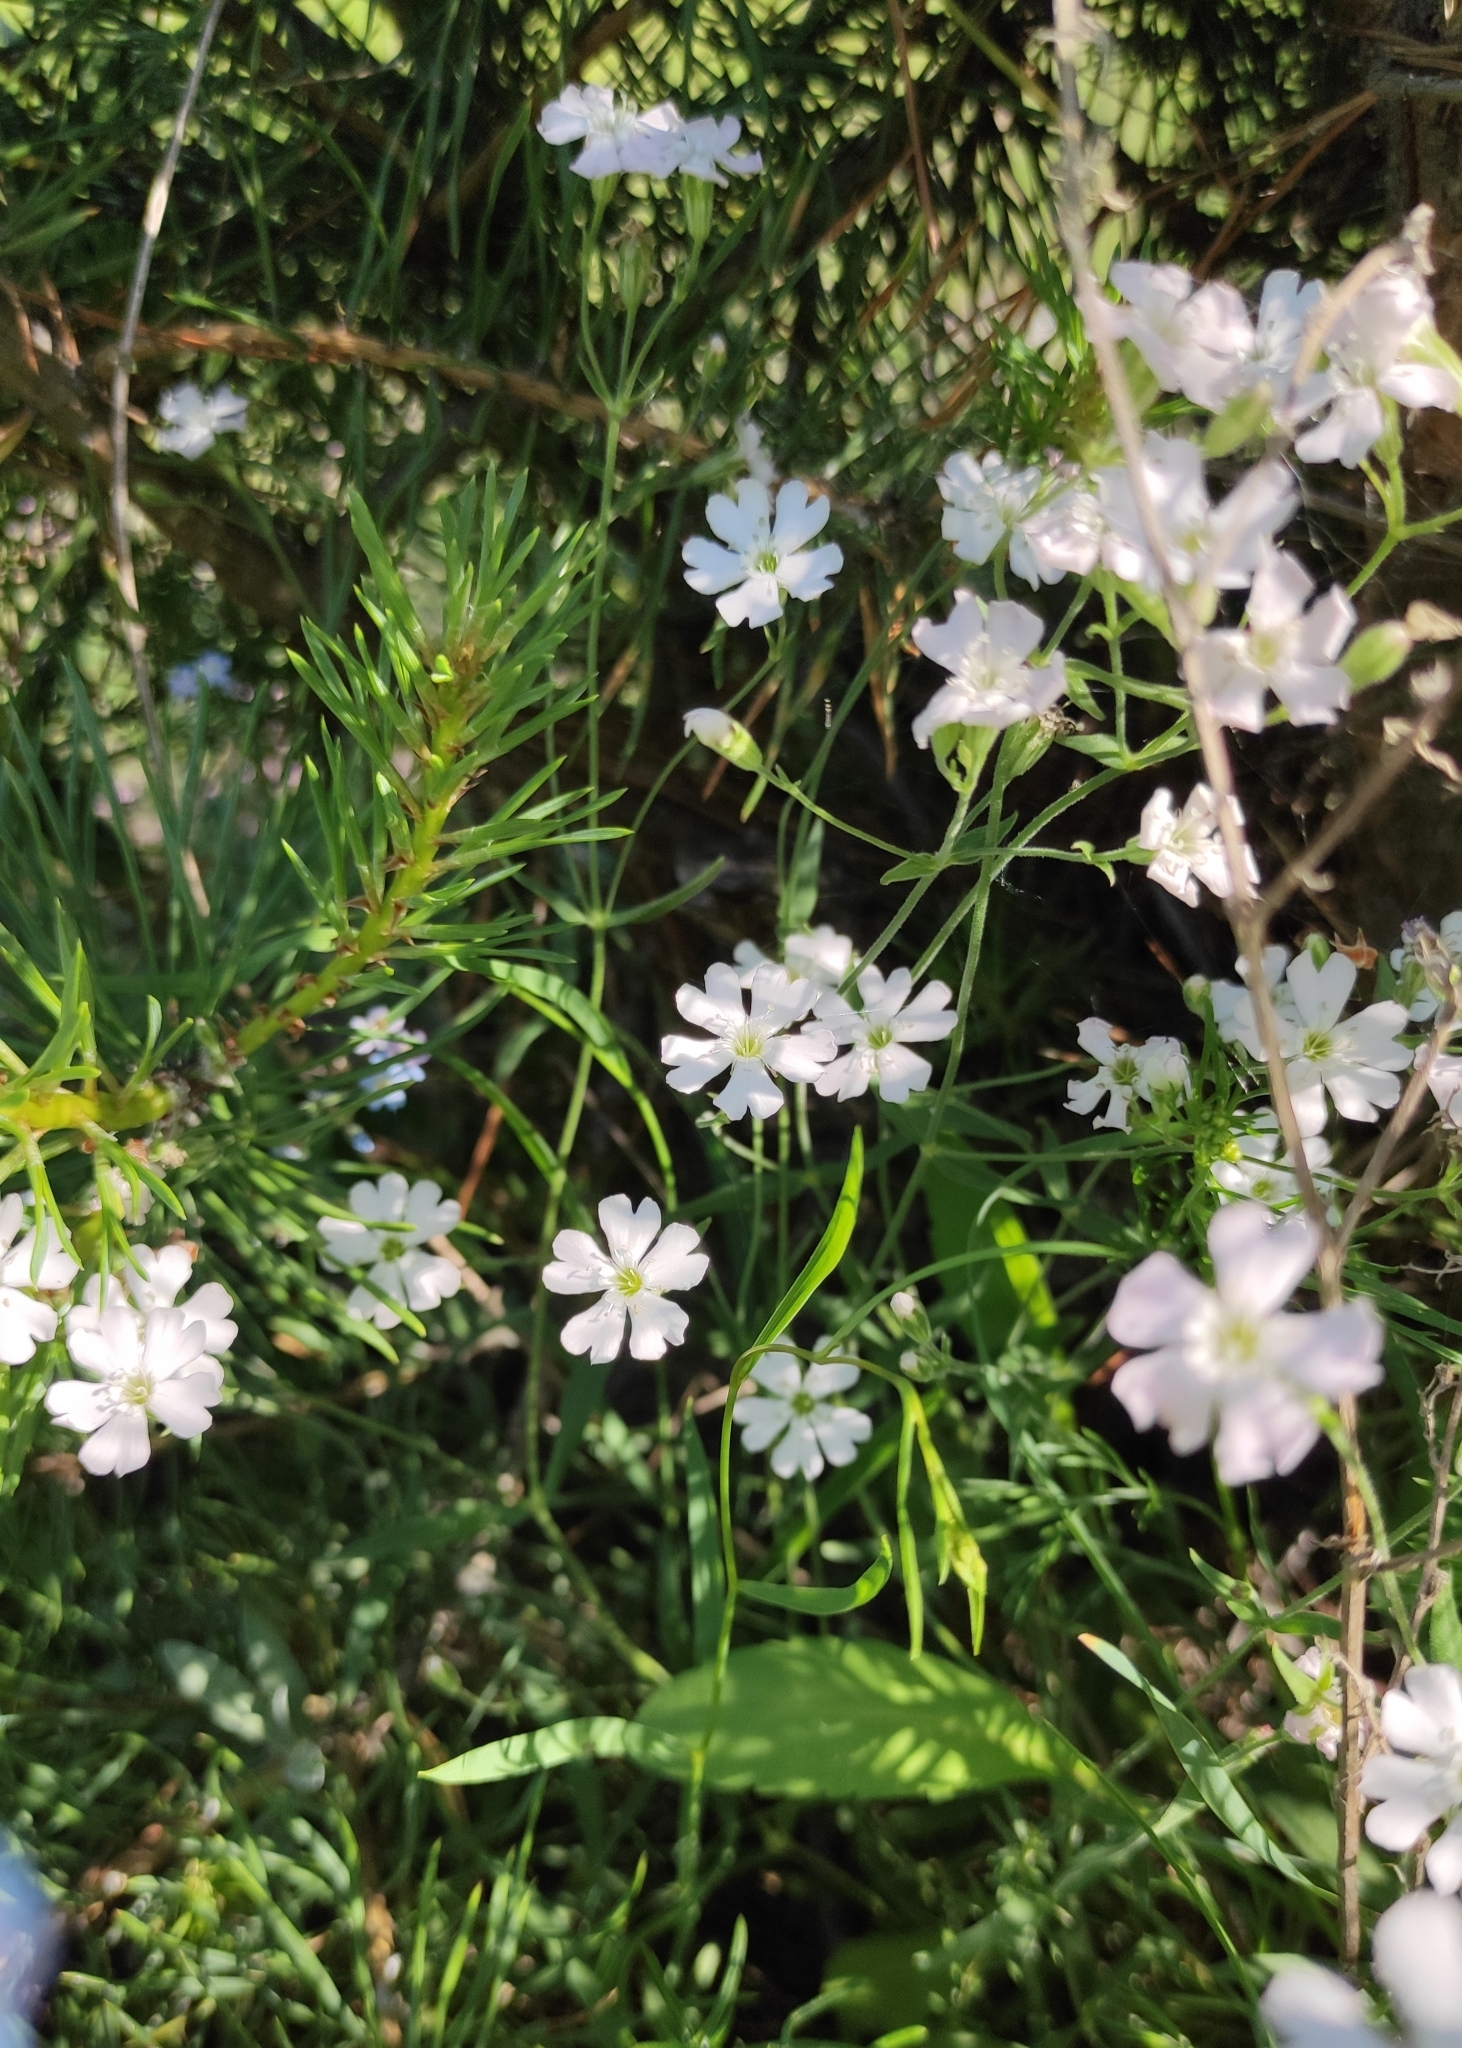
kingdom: Plantae
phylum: Tracheophyta
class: Magnoliopsida
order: Caryophyllales
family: Caryophyllaceae
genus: Silene
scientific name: Silene orientalimongolica
